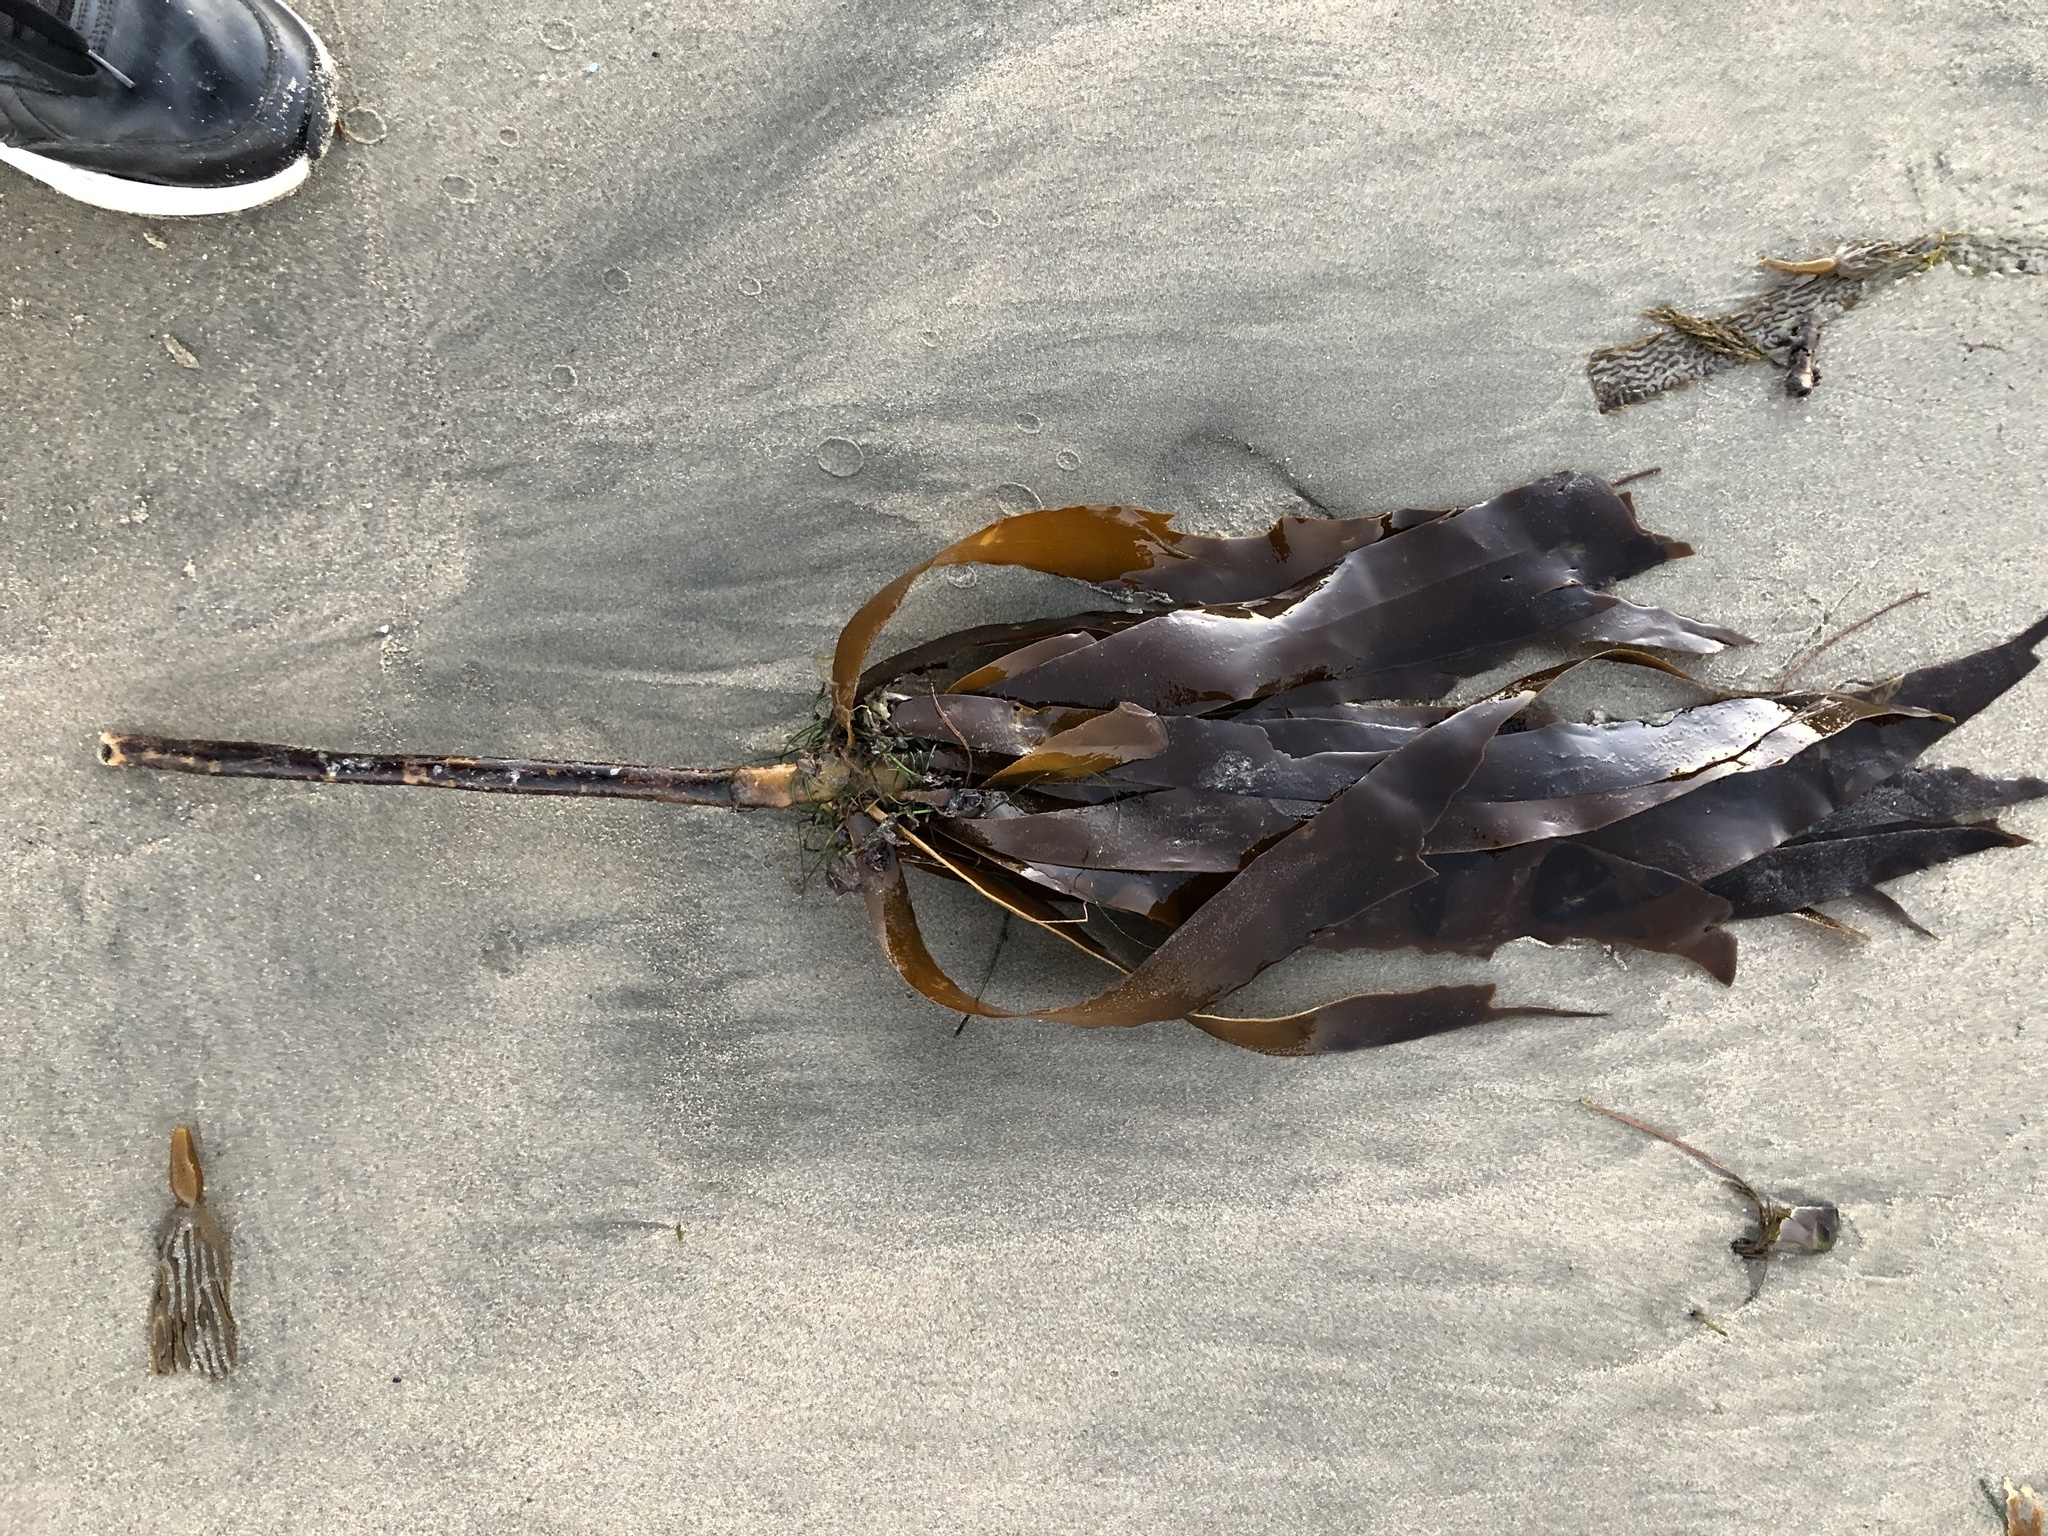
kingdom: Chromista
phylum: Ochrophyta
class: Phaeophyceae
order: Laminariales
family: Alariaceae
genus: Pterygophora
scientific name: Pterygophora californica
